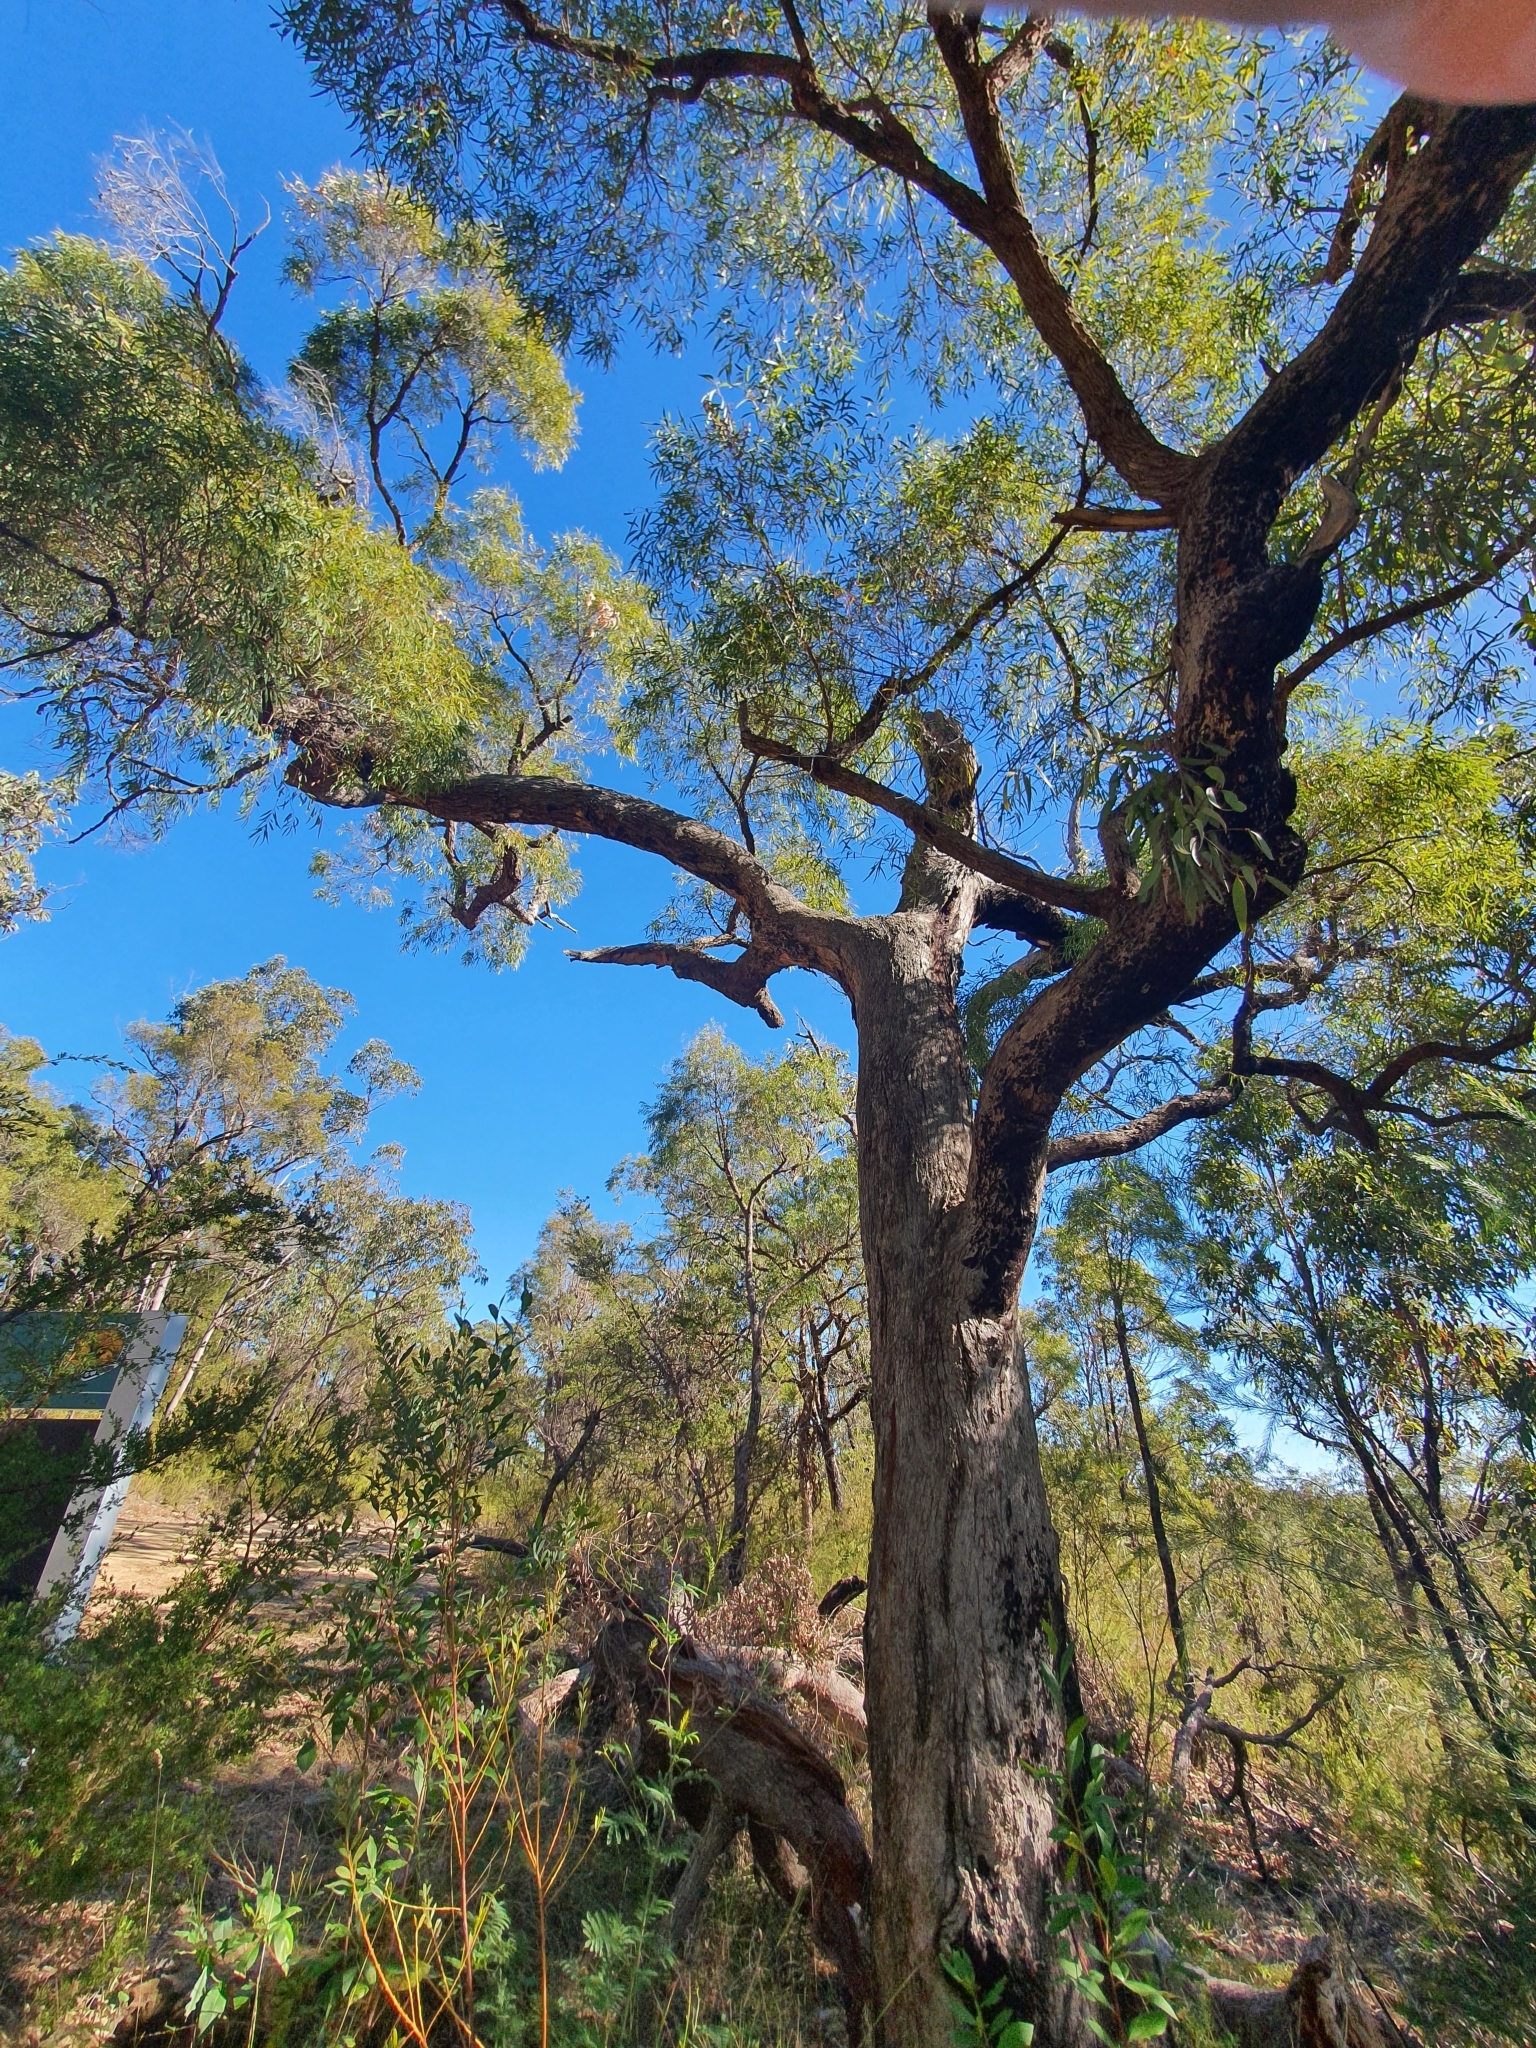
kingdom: Plantae
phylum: Tracheophyta
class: Magnoliopsida
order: Myrtales
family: Myrtaceae
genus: Angophora
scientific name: Angophora bakeri
